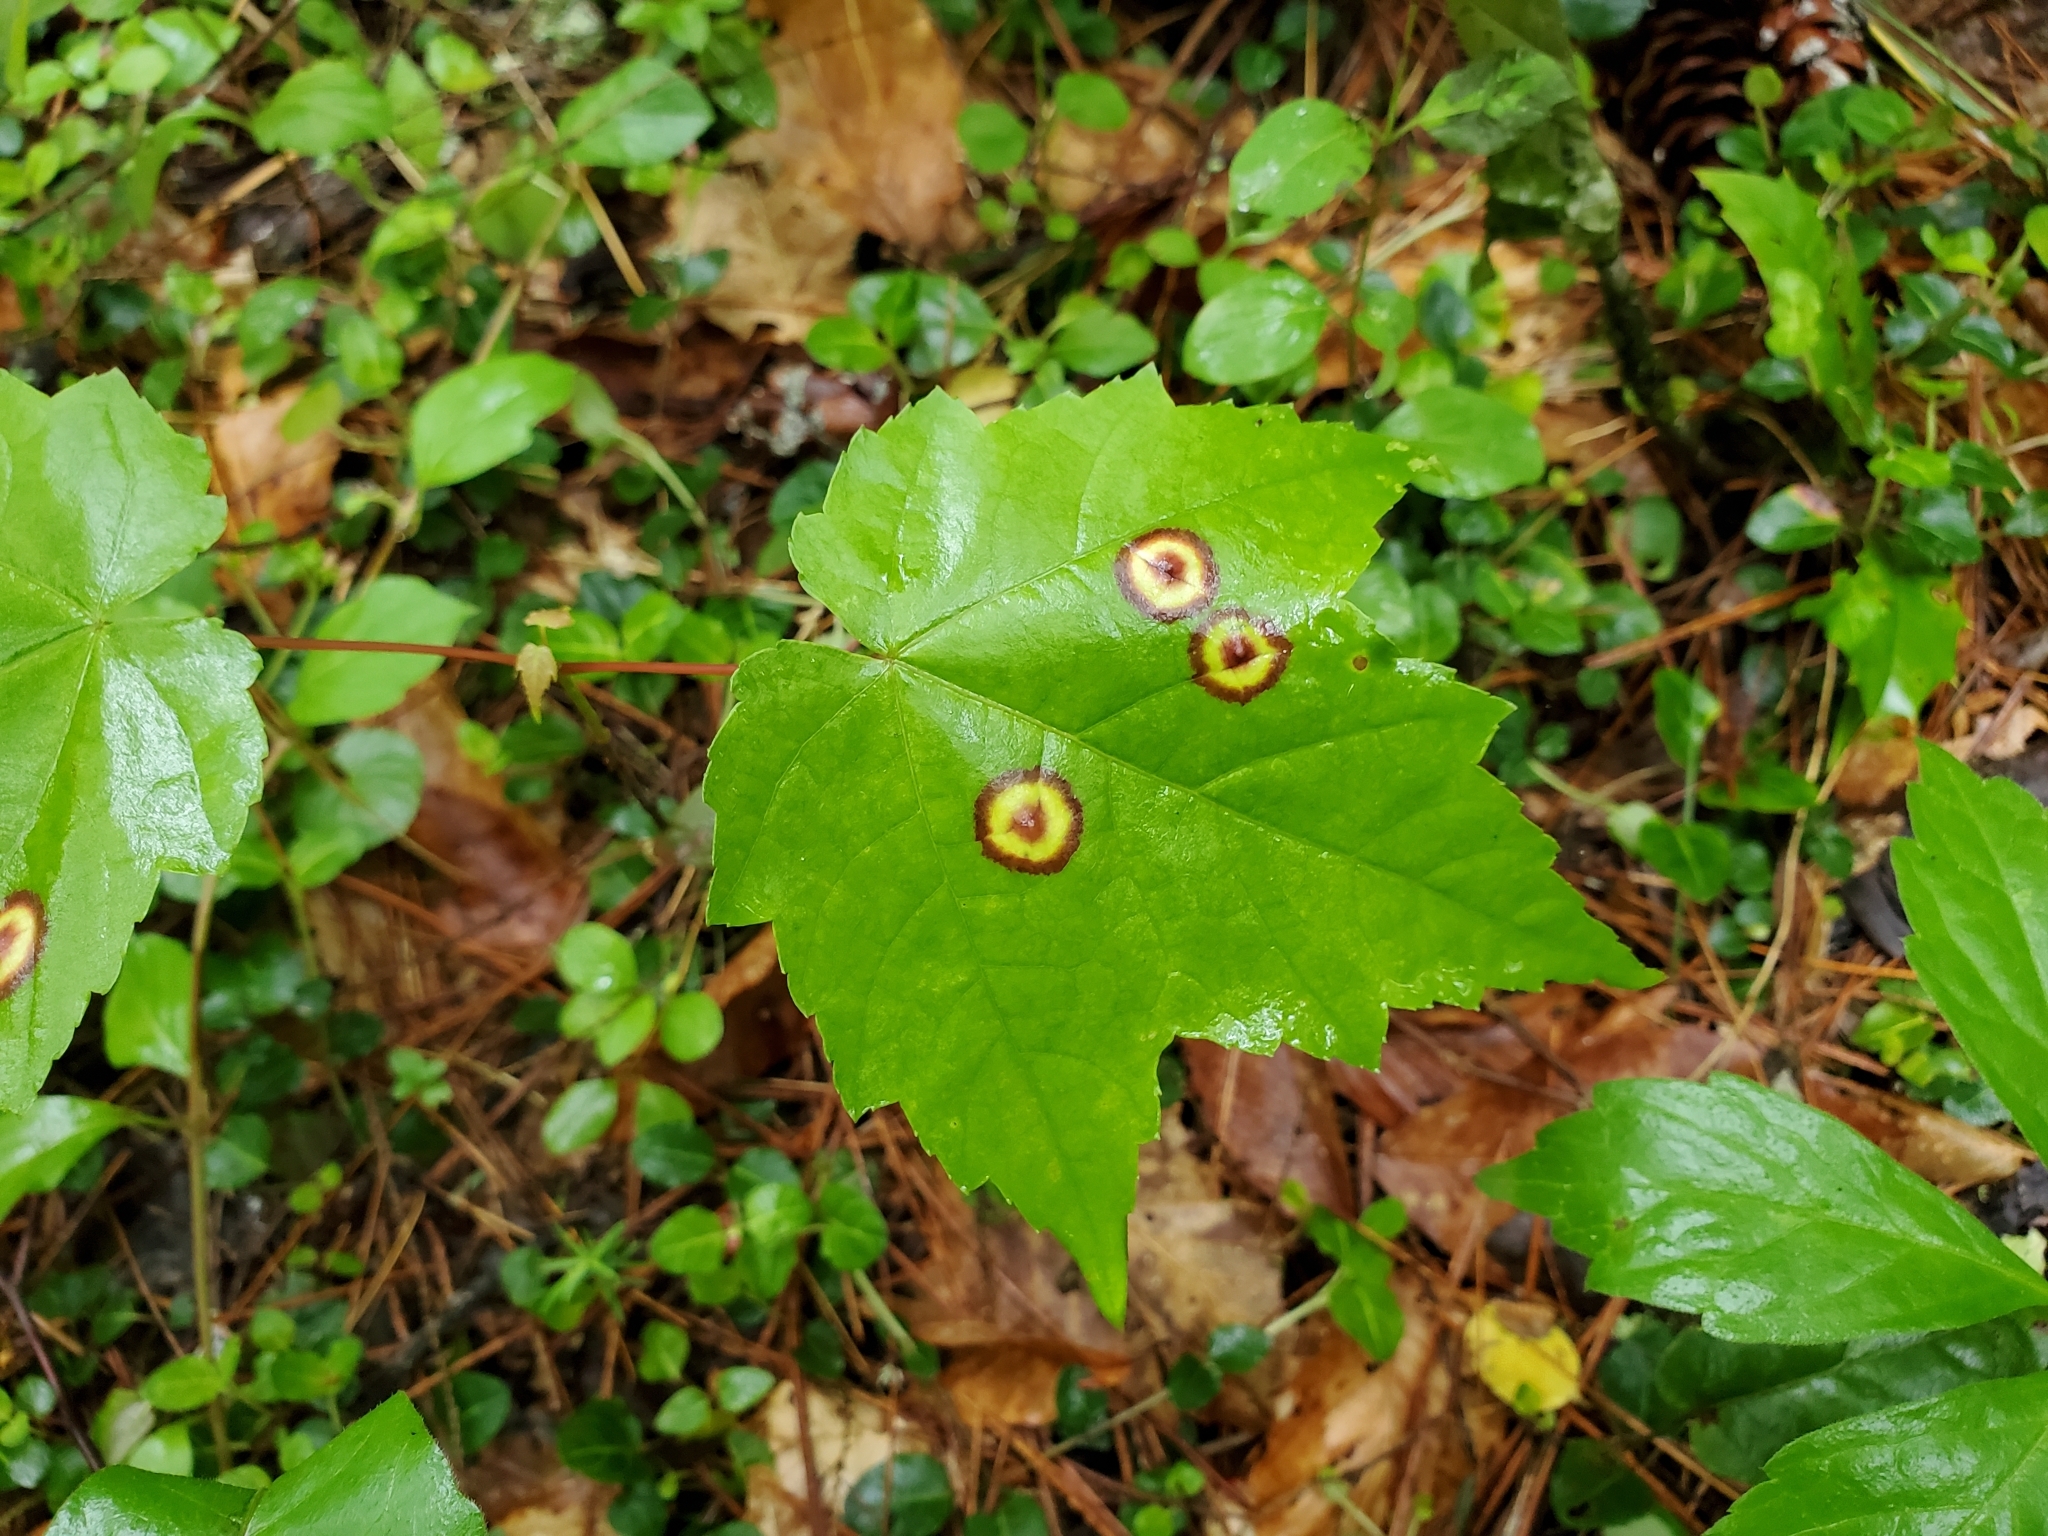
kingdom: Animalia
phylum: Arthropoda
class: Insecta
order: Diptera
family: Cecidomyiidae
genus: Acericecis
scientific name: Acericecis ocellaris
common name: Ocellate gall midge
